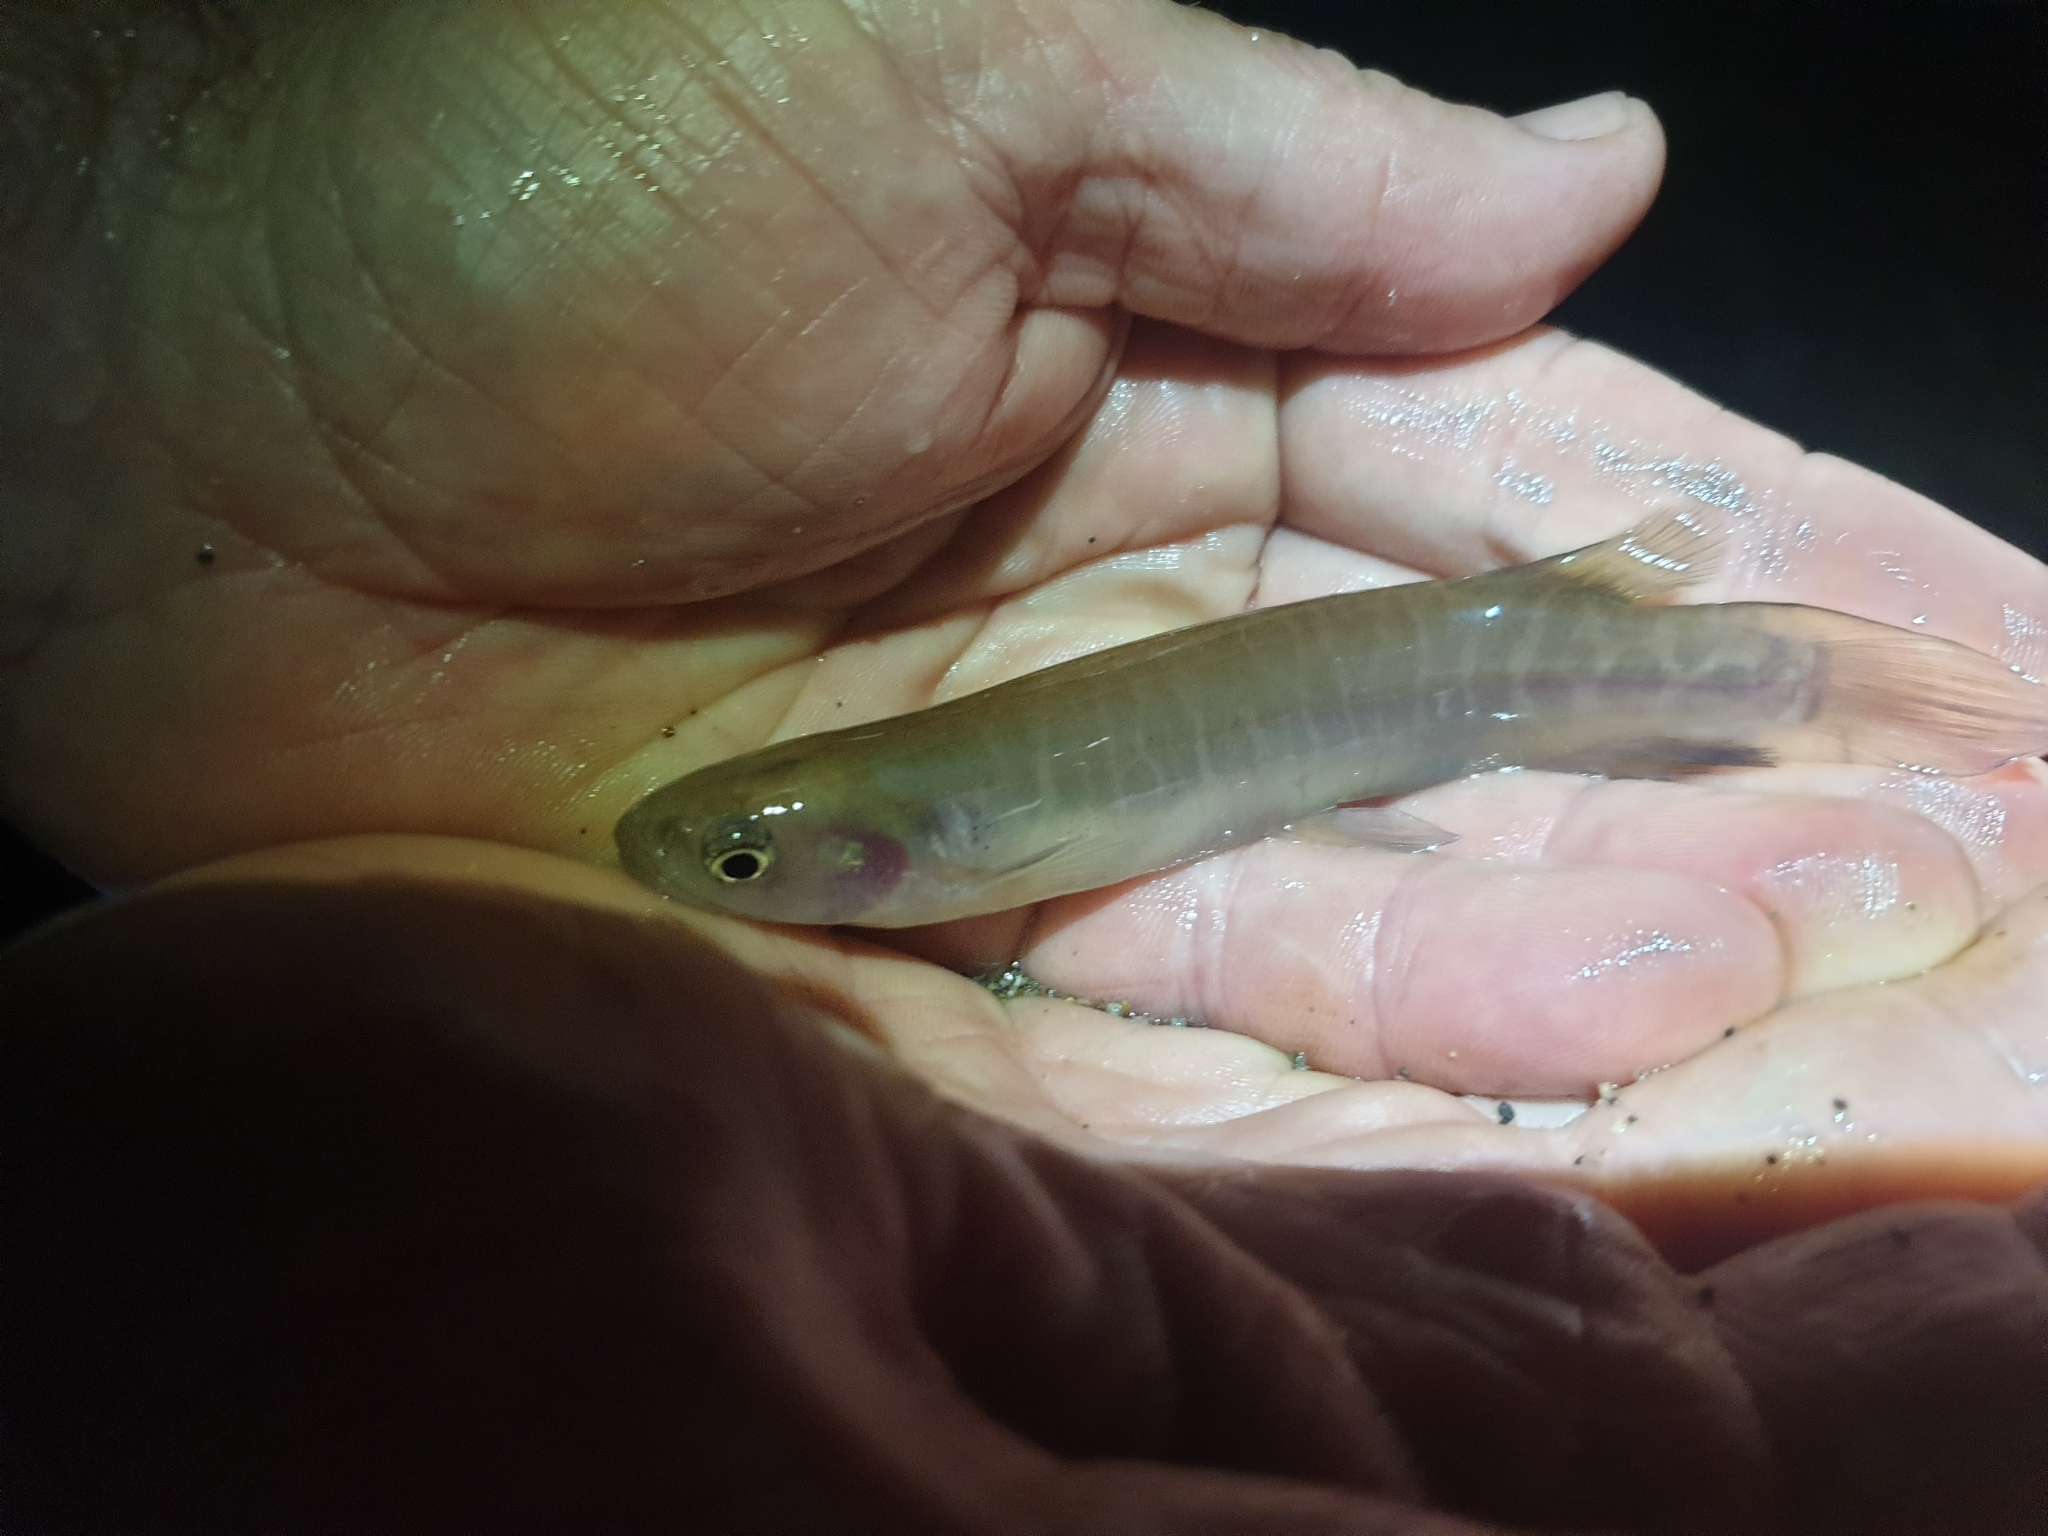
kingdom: Animalia
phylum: Chordata
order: Osmeriformes
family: Galaxiidae
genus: Galaxias
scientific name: Galaxias fasciatus
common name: Banded kokopu
